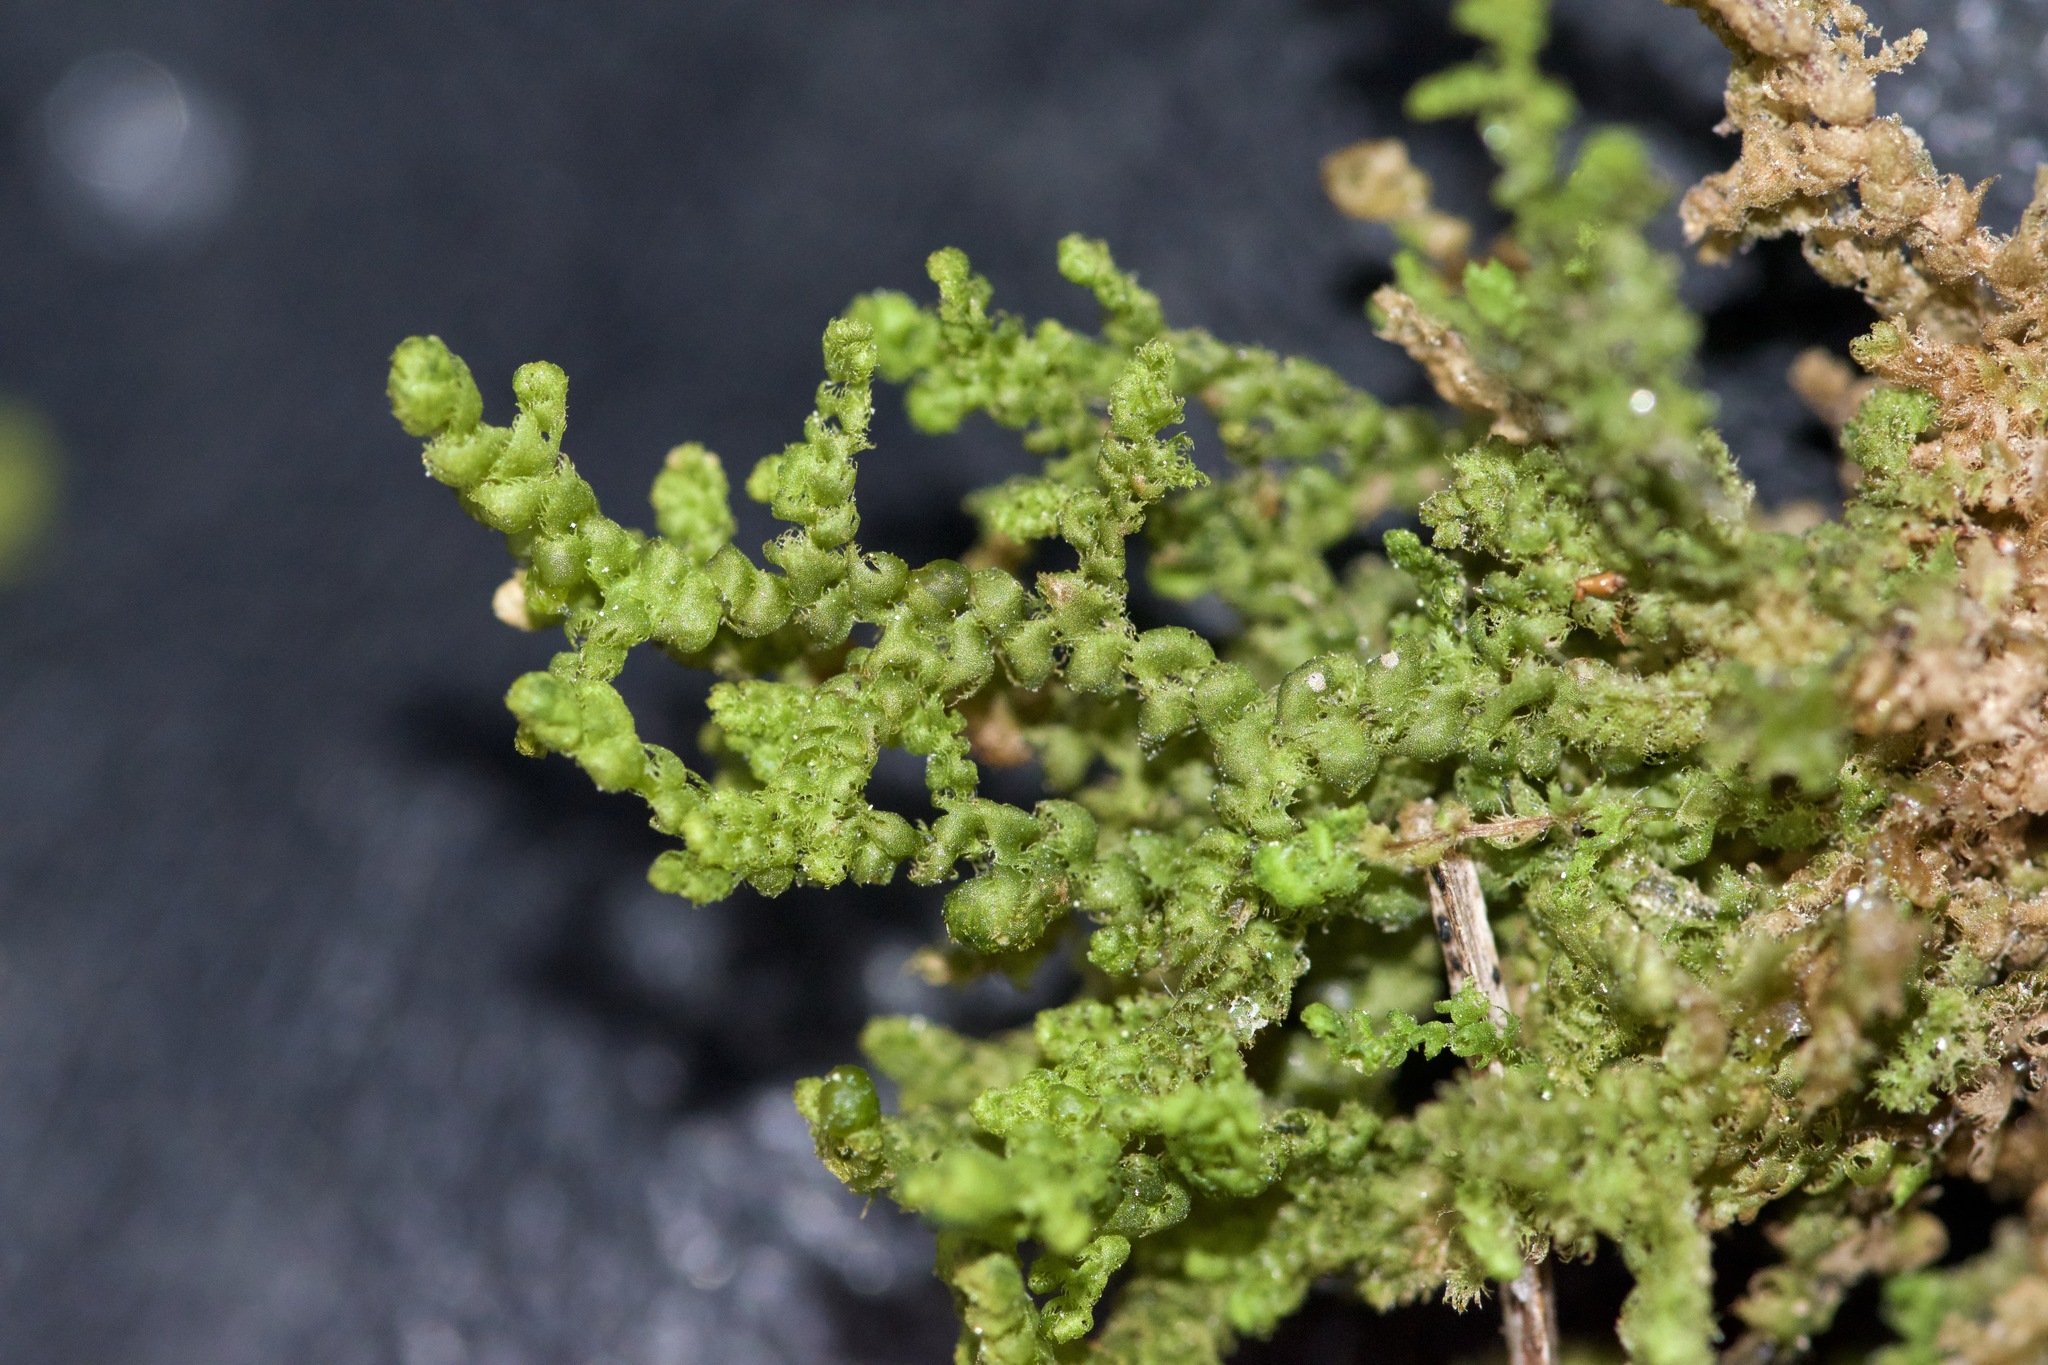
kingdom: Plantae
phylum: Marchantiophyta
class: Jungermanniopsida
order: Ptilidiales
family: Ptilidiaceae
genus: Ptilidium
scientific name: Ptilidium ciliare
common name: Ciliate fringewort
